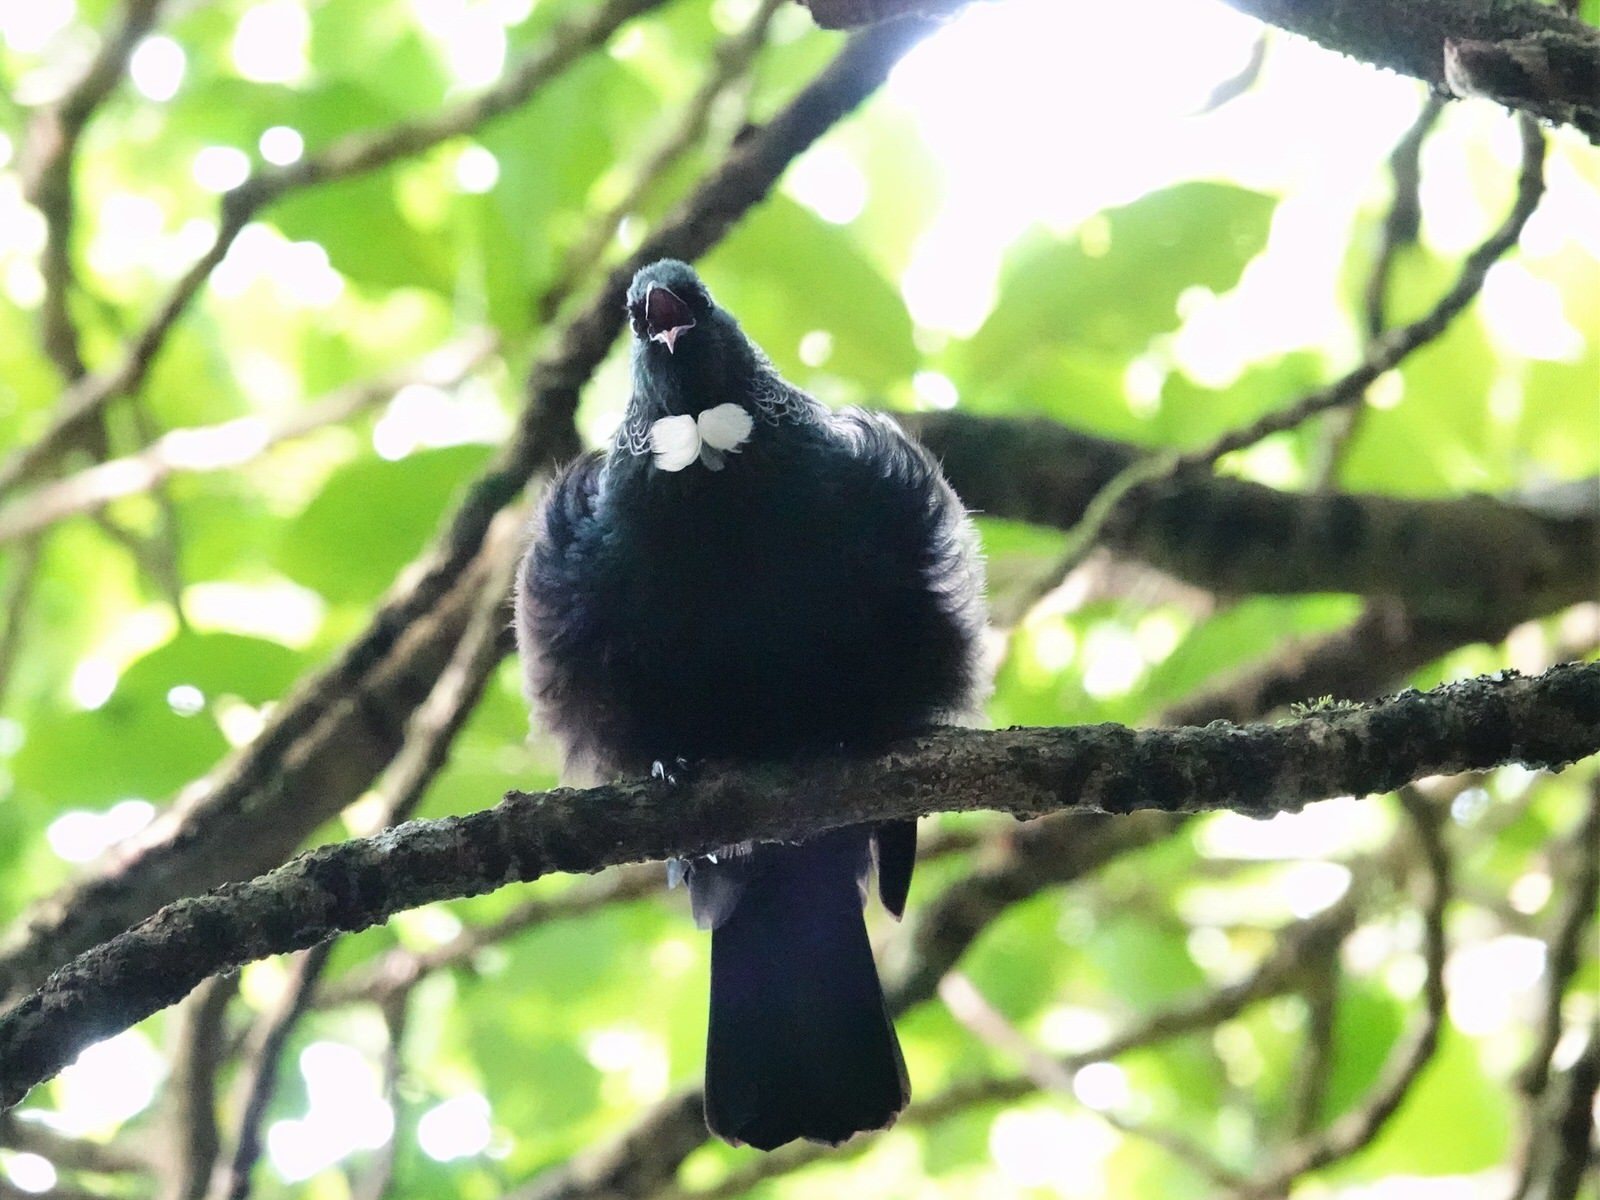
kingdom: Animalia
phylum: Chordata
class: Aves
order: Passeriformes
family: Meliphagidae
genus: Prosthemadera
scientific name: Prosthemadera novaeseelandiae
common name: Tui
